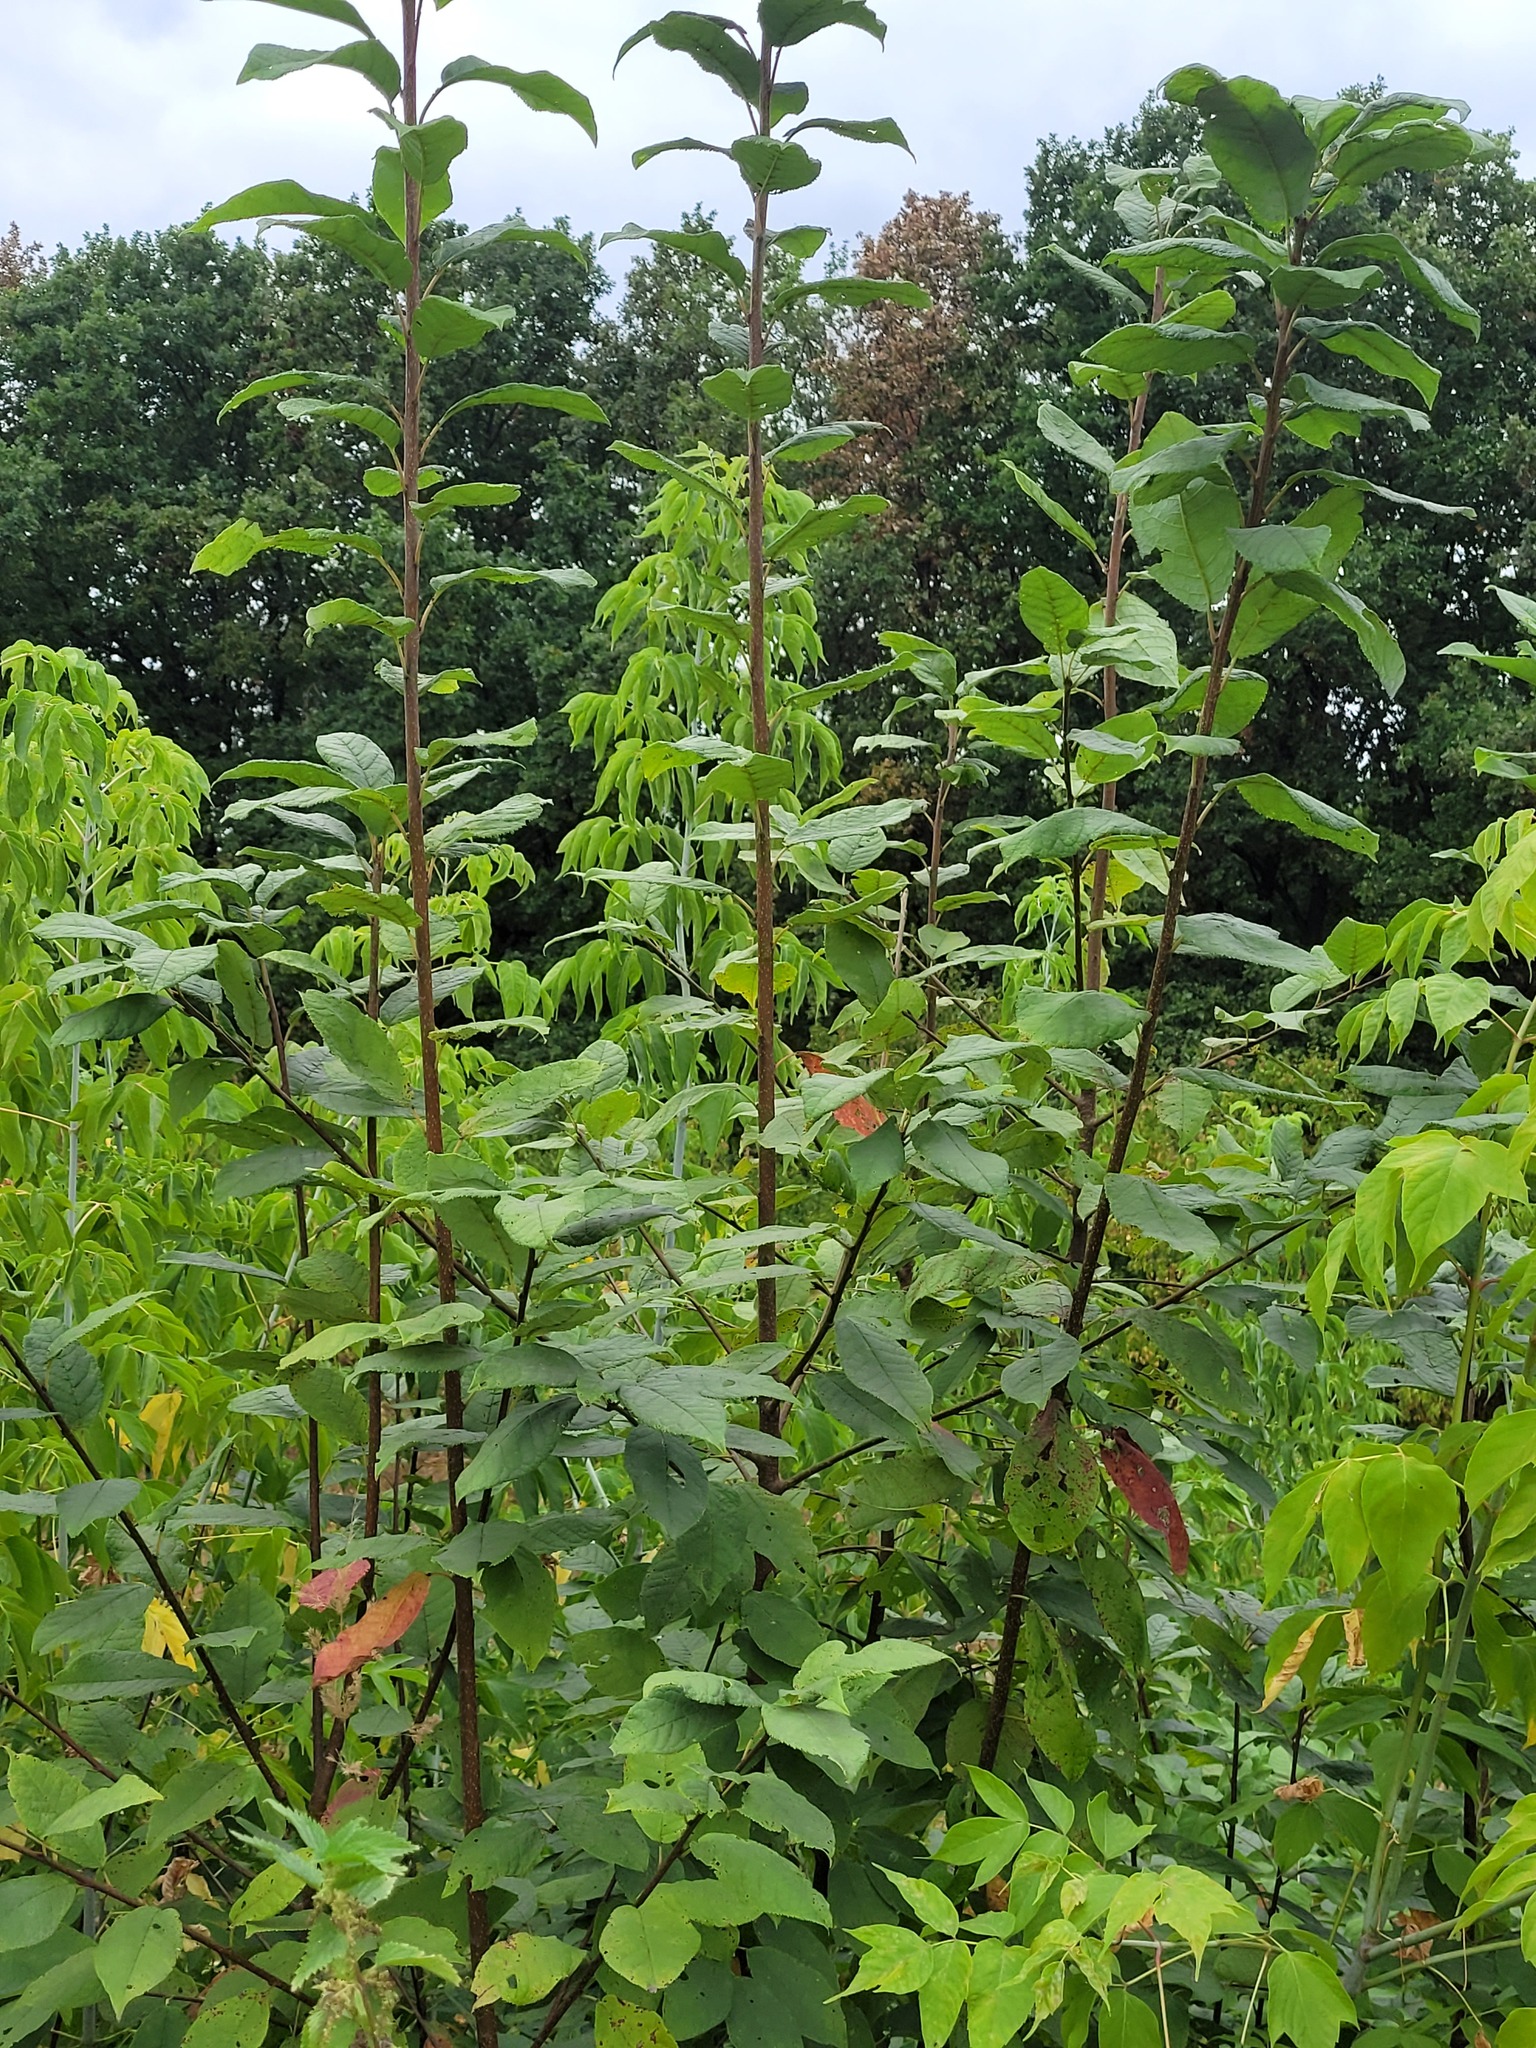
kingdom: Plantae
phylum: Tracheophyta
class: Magnoliopsida
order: Rosales
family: Rosaceae
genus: Prunus
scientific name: Prunus padus
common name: Bird cherry
